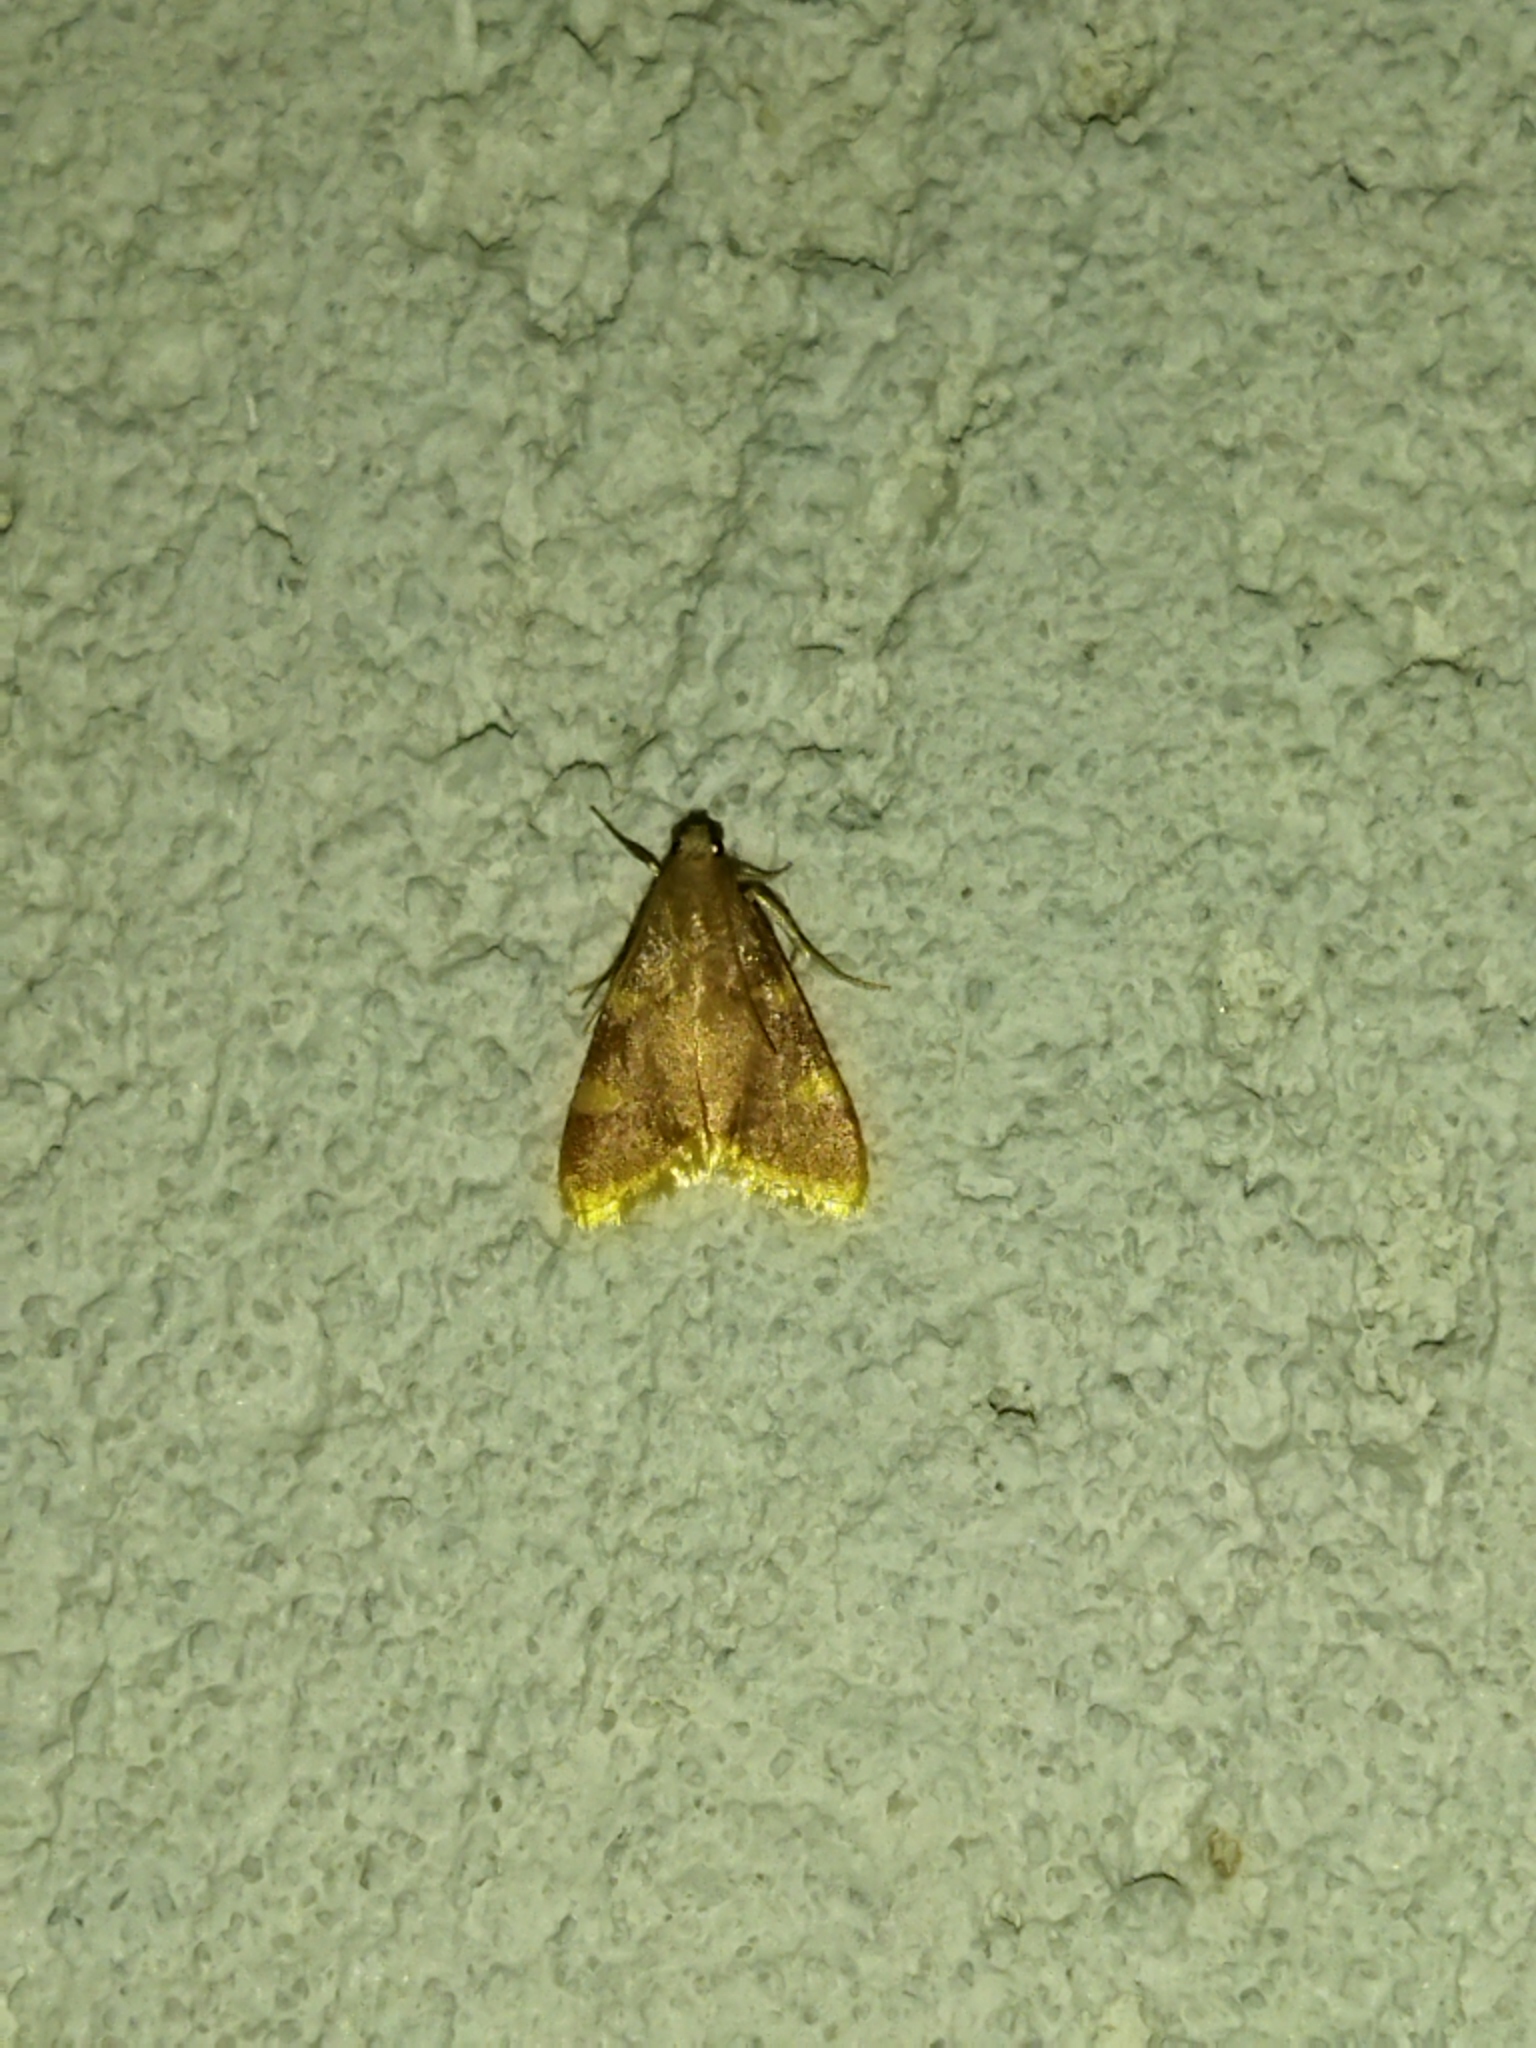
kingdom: Animalia
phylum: Arthropoda
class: Insecta
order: Lepidoptera
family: Pyralidae
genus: Hypsopygia
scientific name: Hypsopygia costalis
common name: Gold triangle
